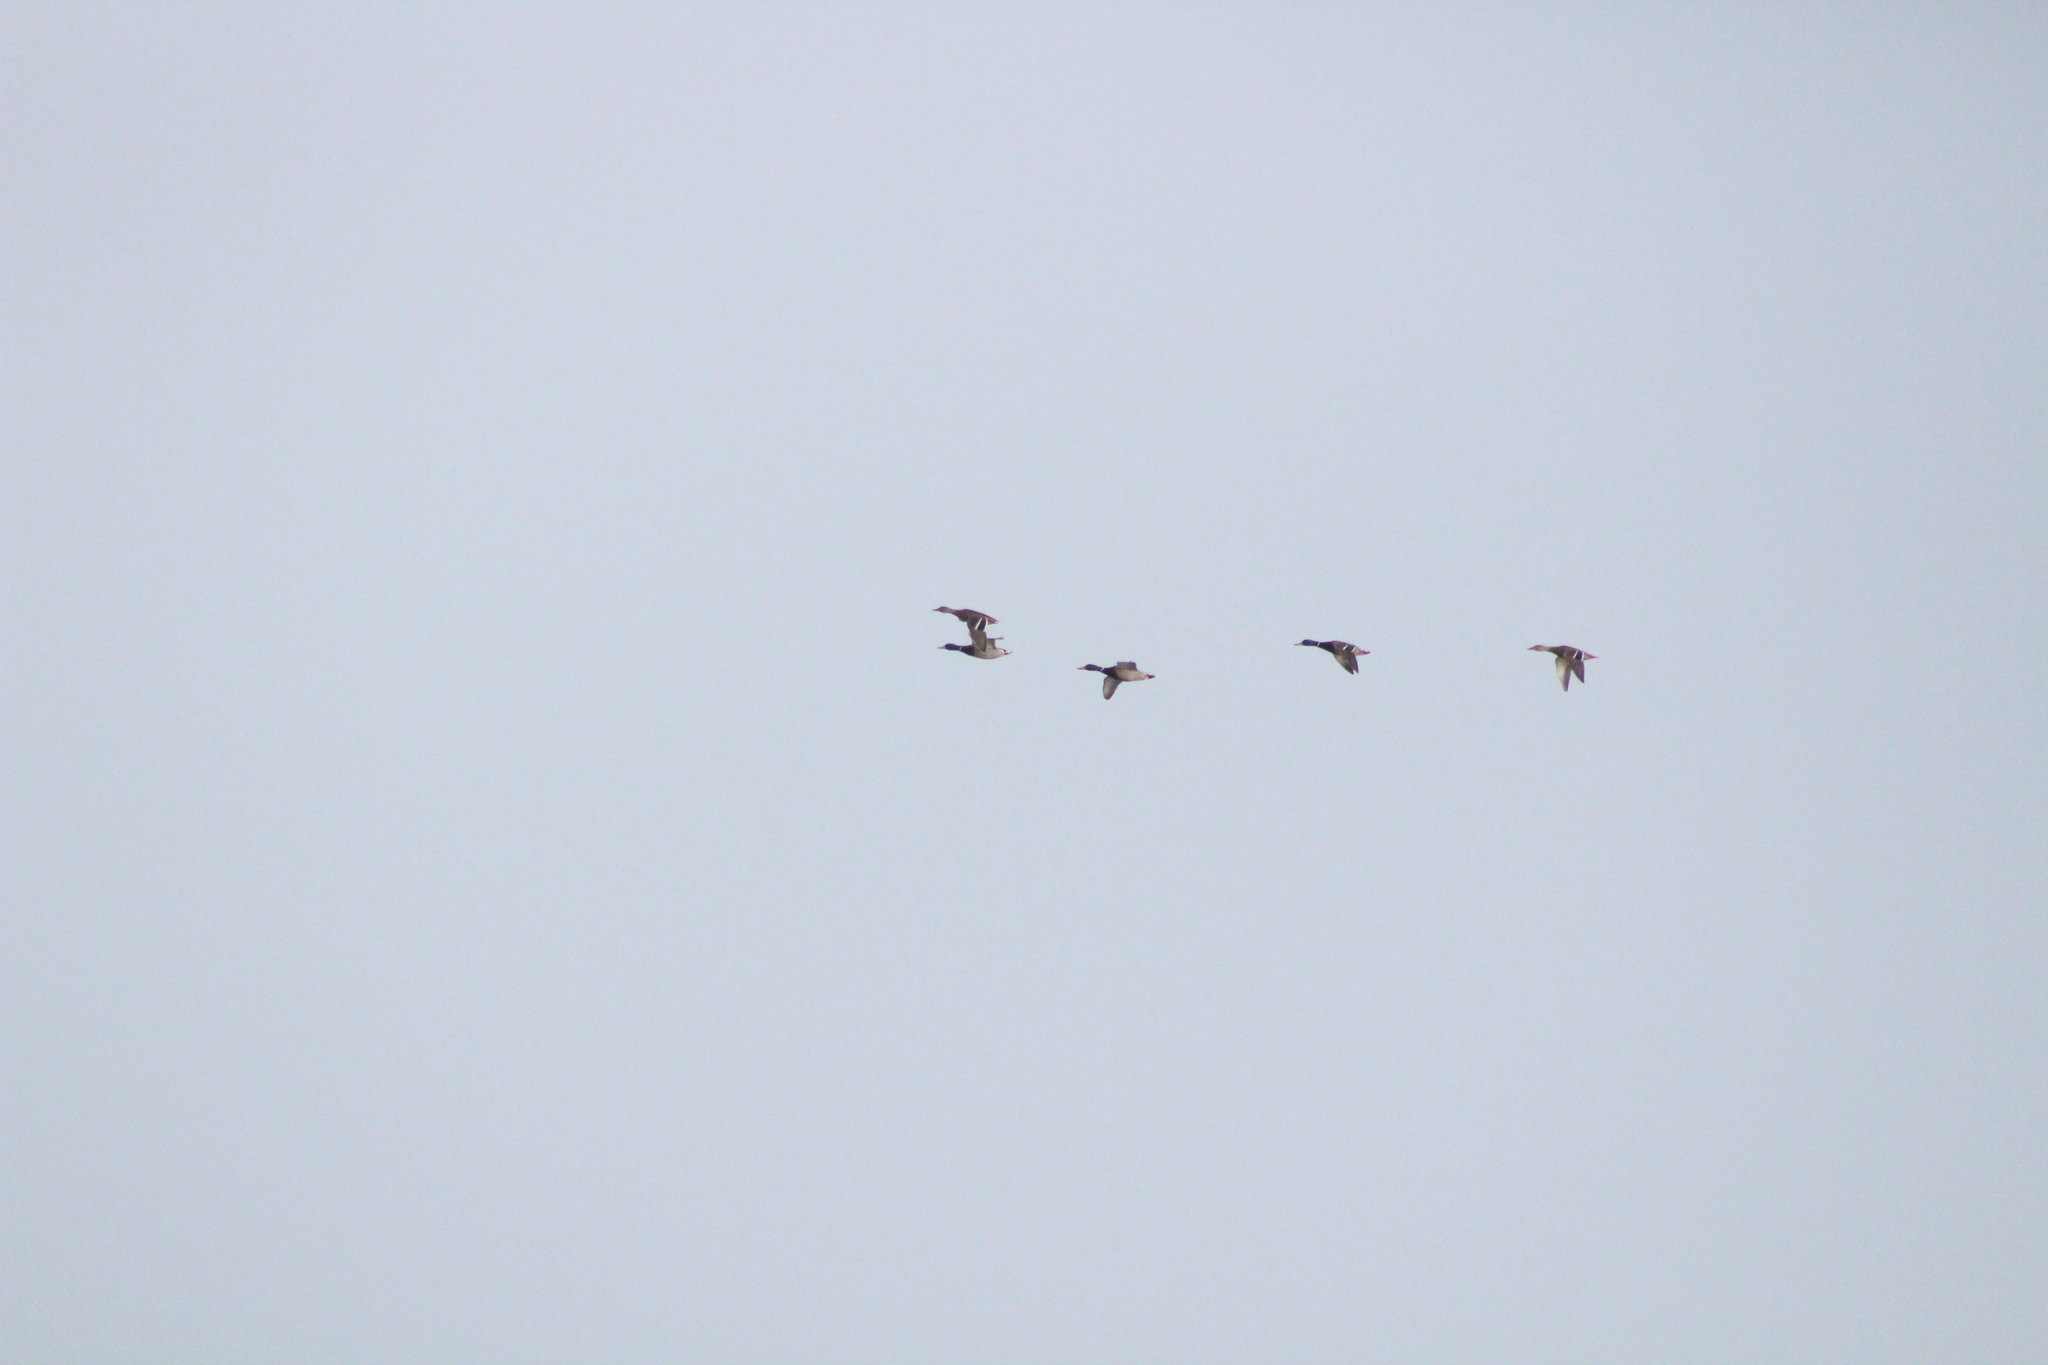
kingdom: Animalia
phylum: Chordata
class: Aves
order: Anseriformes
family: Anatidae
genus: Anas
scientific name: Anas platyrhynchos
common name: Mallard
